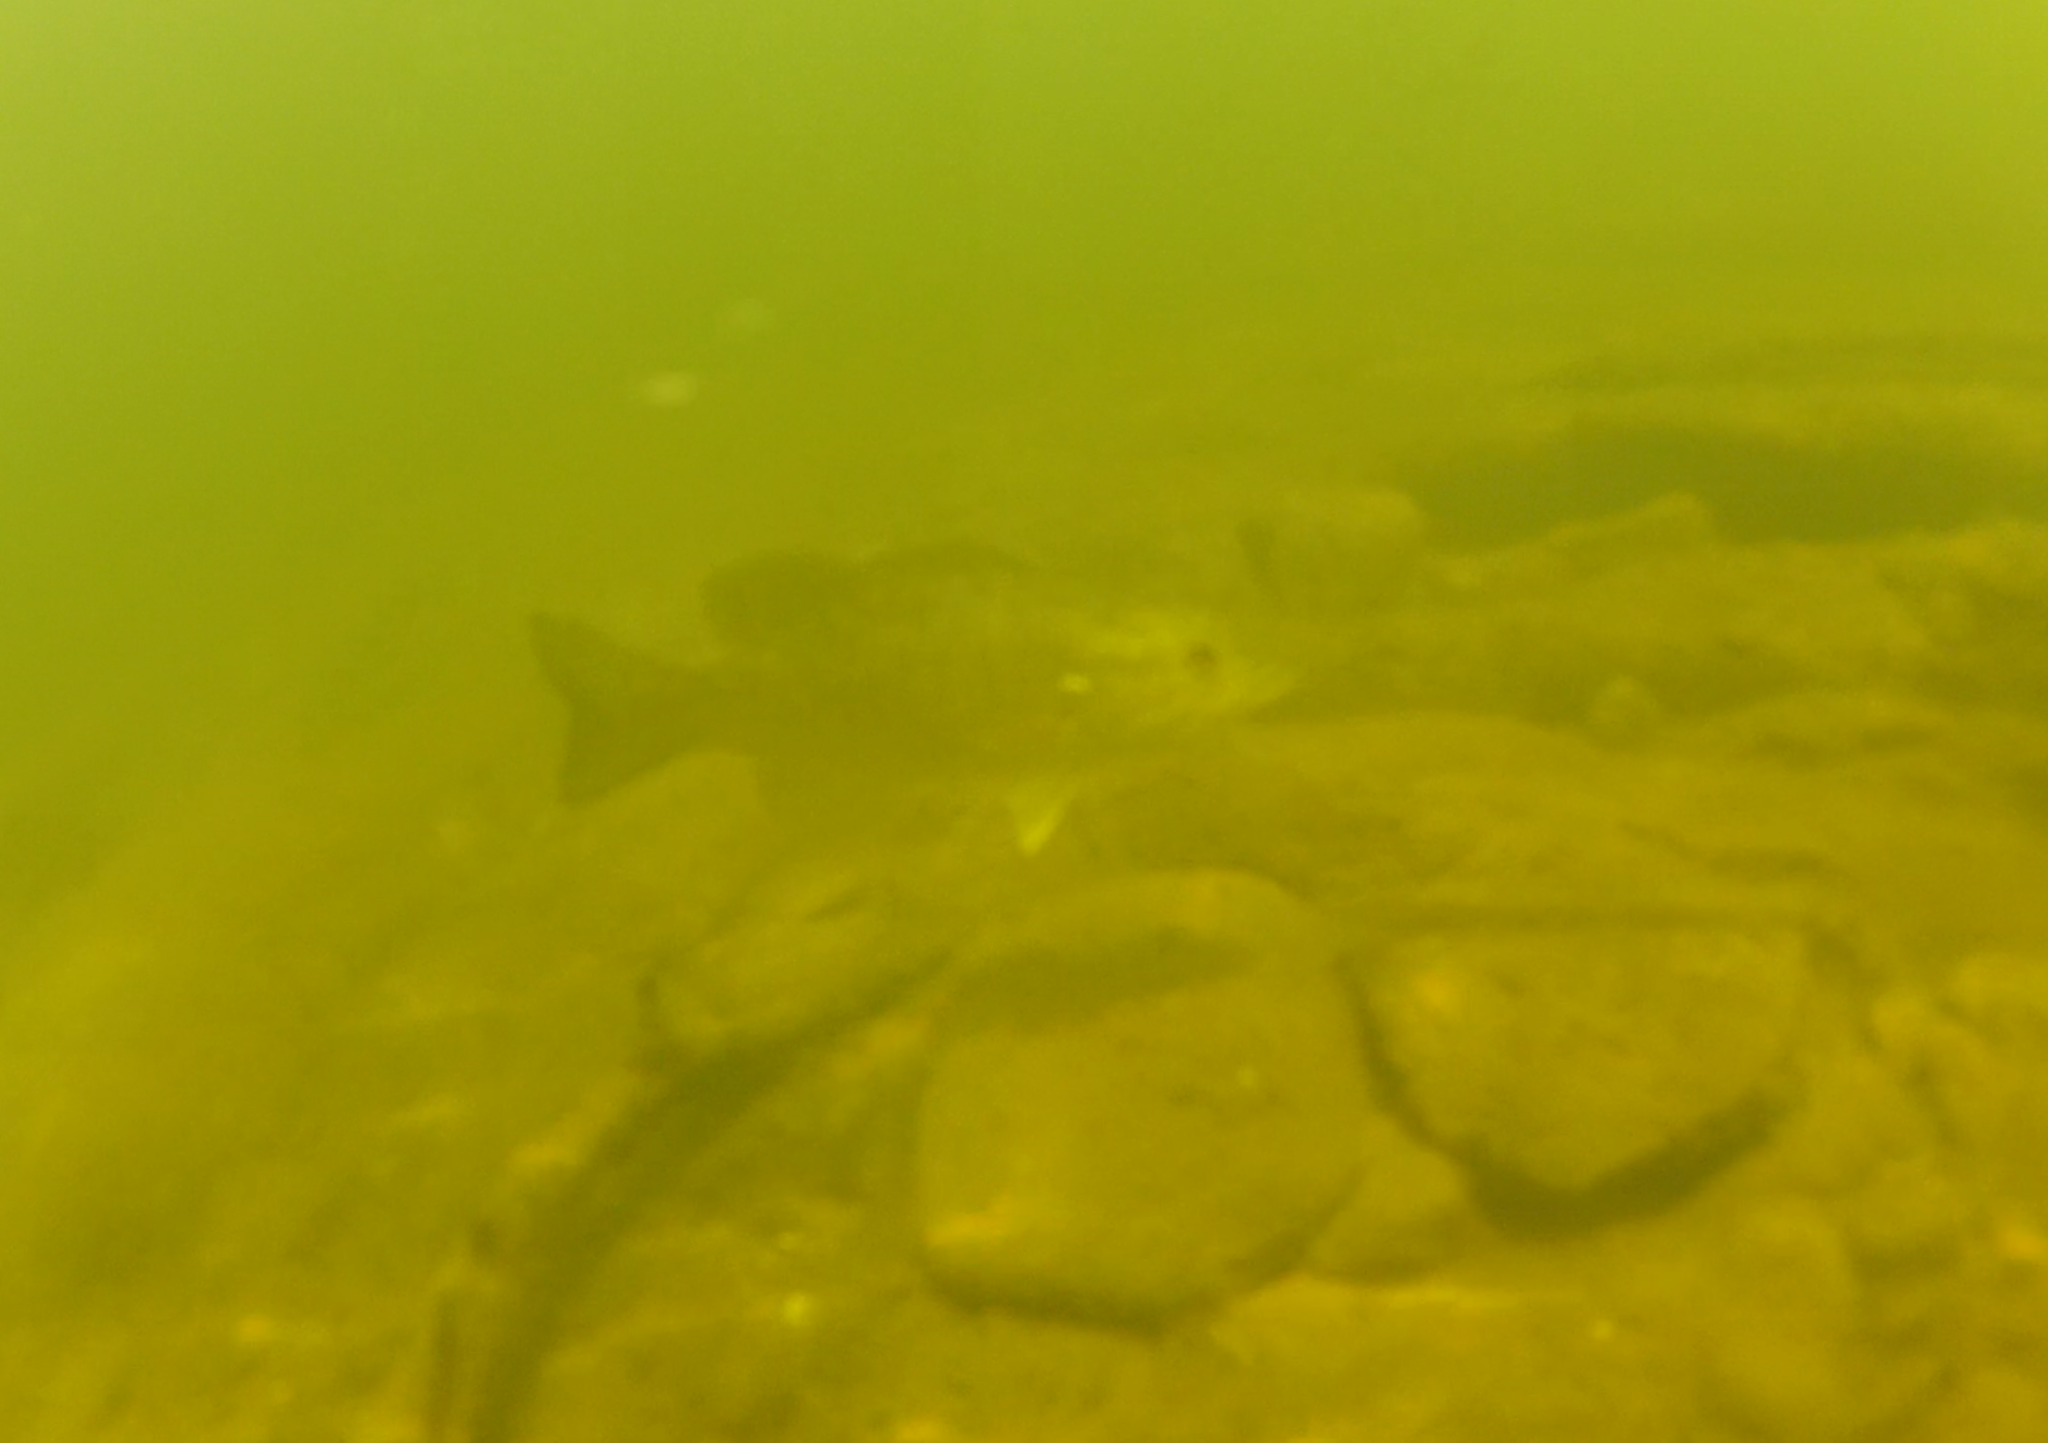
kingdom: Animalia
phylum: Chordata
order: Perciformes
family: Centrarchidae
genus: Micropterus
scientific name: Micropterus dolomieu
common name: Smallmouth bass
